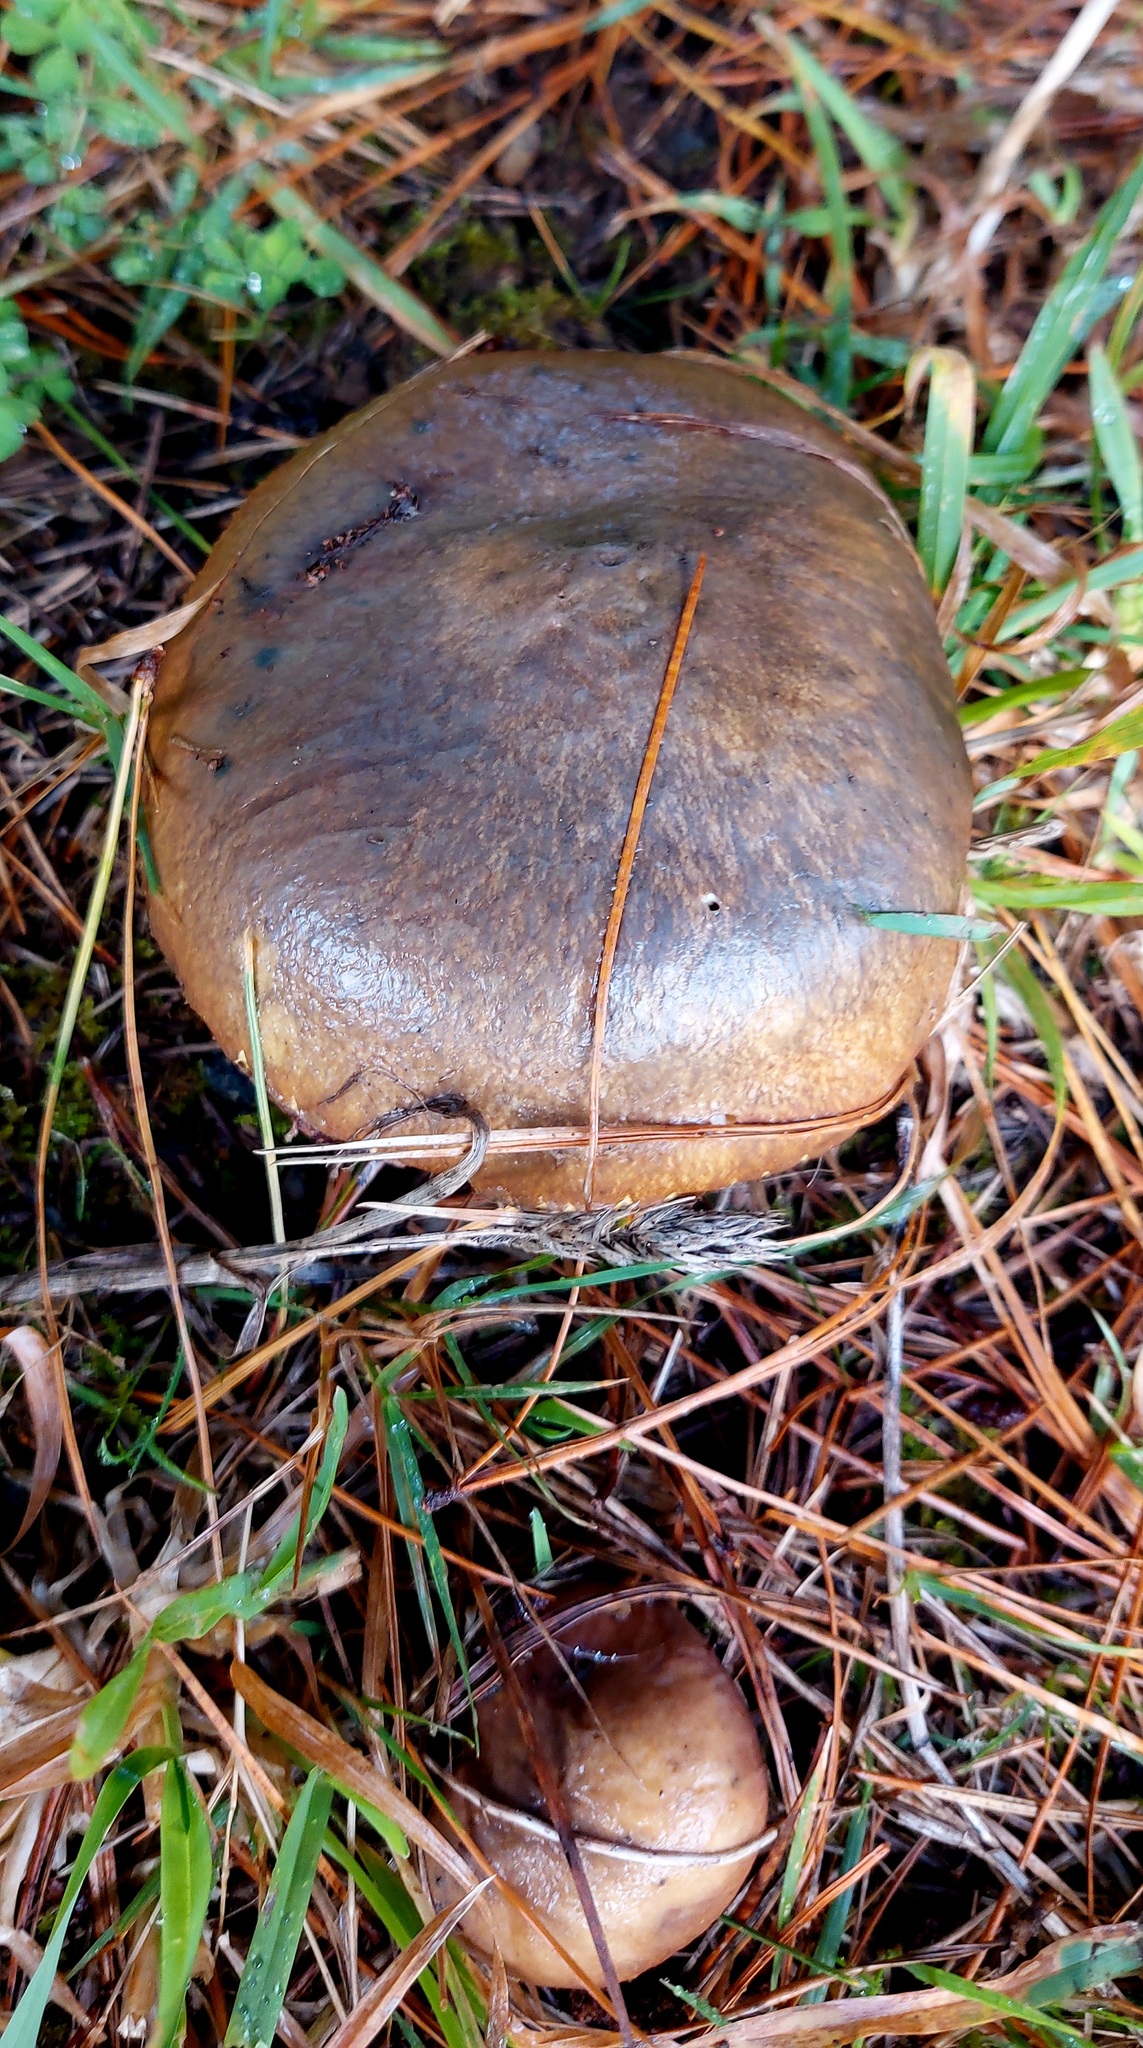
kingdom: Fungi
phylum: Basidiomycota
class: Agaricomycetes
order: Boletales
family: Suillaceae
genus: Suillus
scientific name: Suillus luteus
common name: Slippery jack
